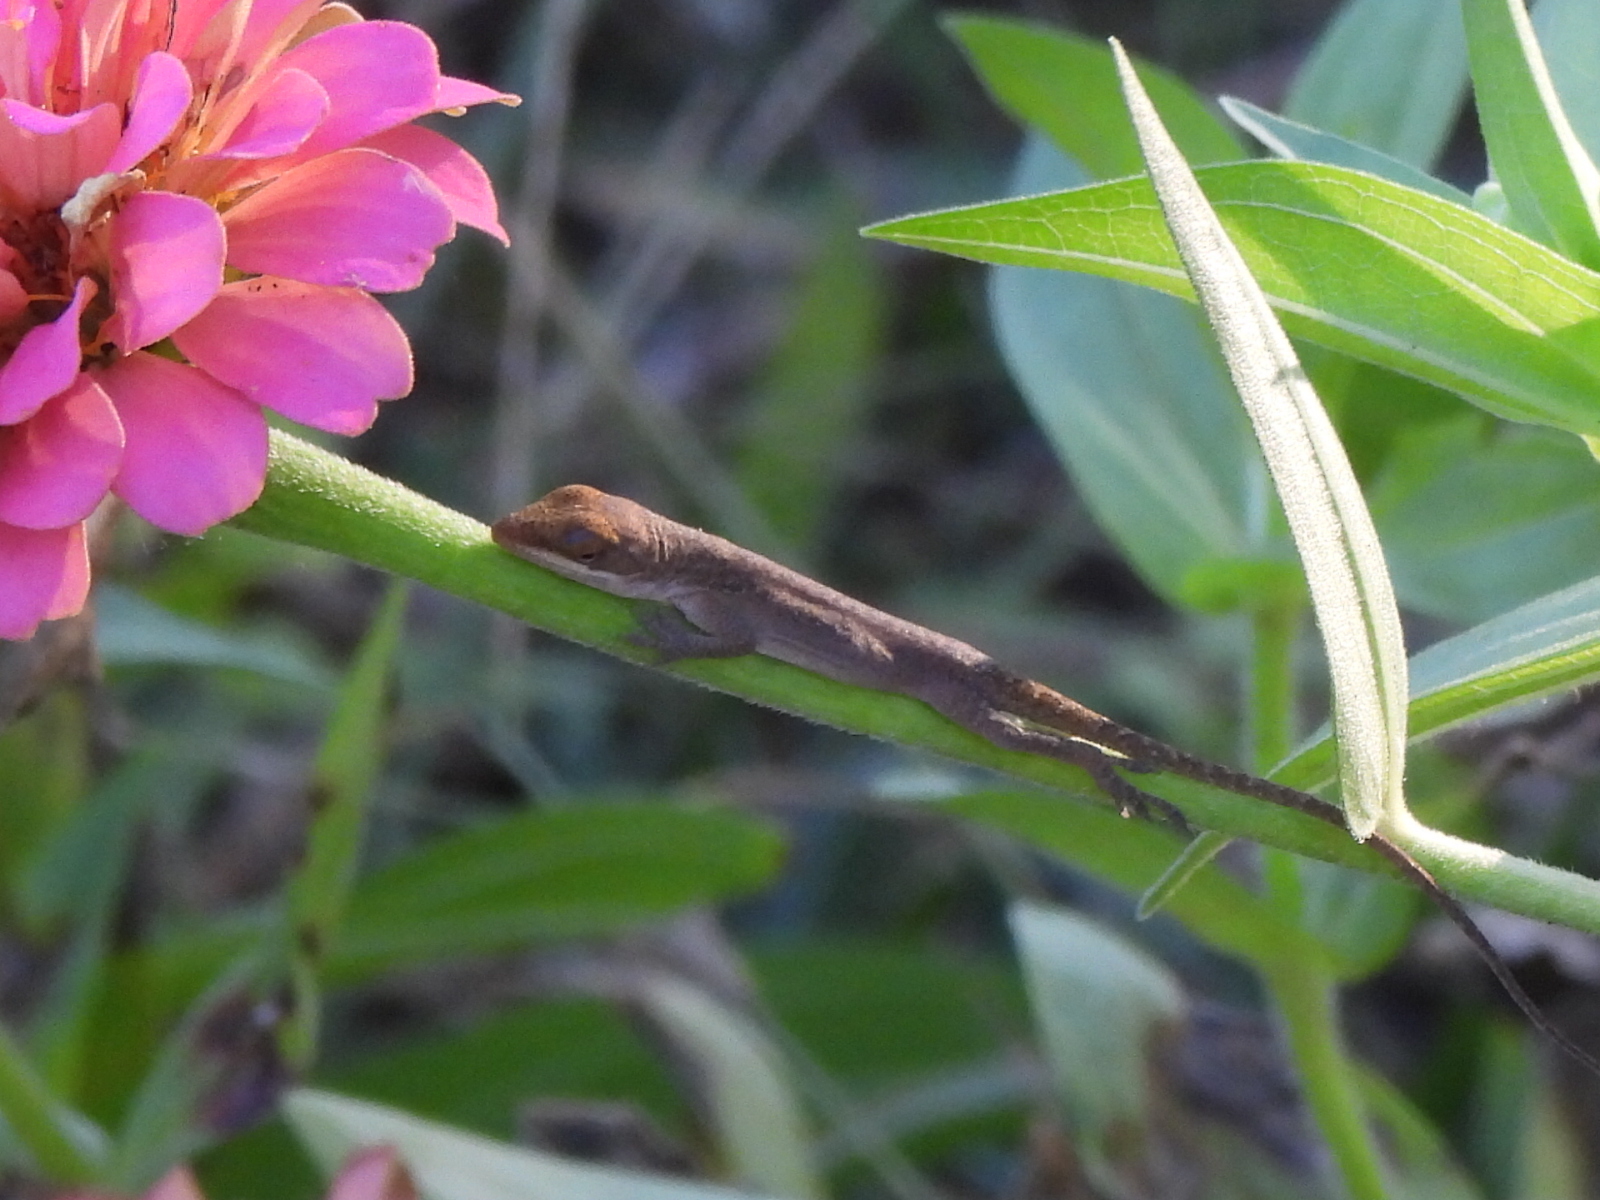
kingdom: Animalia
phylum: Chordata
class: Squamata
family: Dactyloidae
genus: Anolis
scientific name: Anolis carolinensis
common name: Green anole
